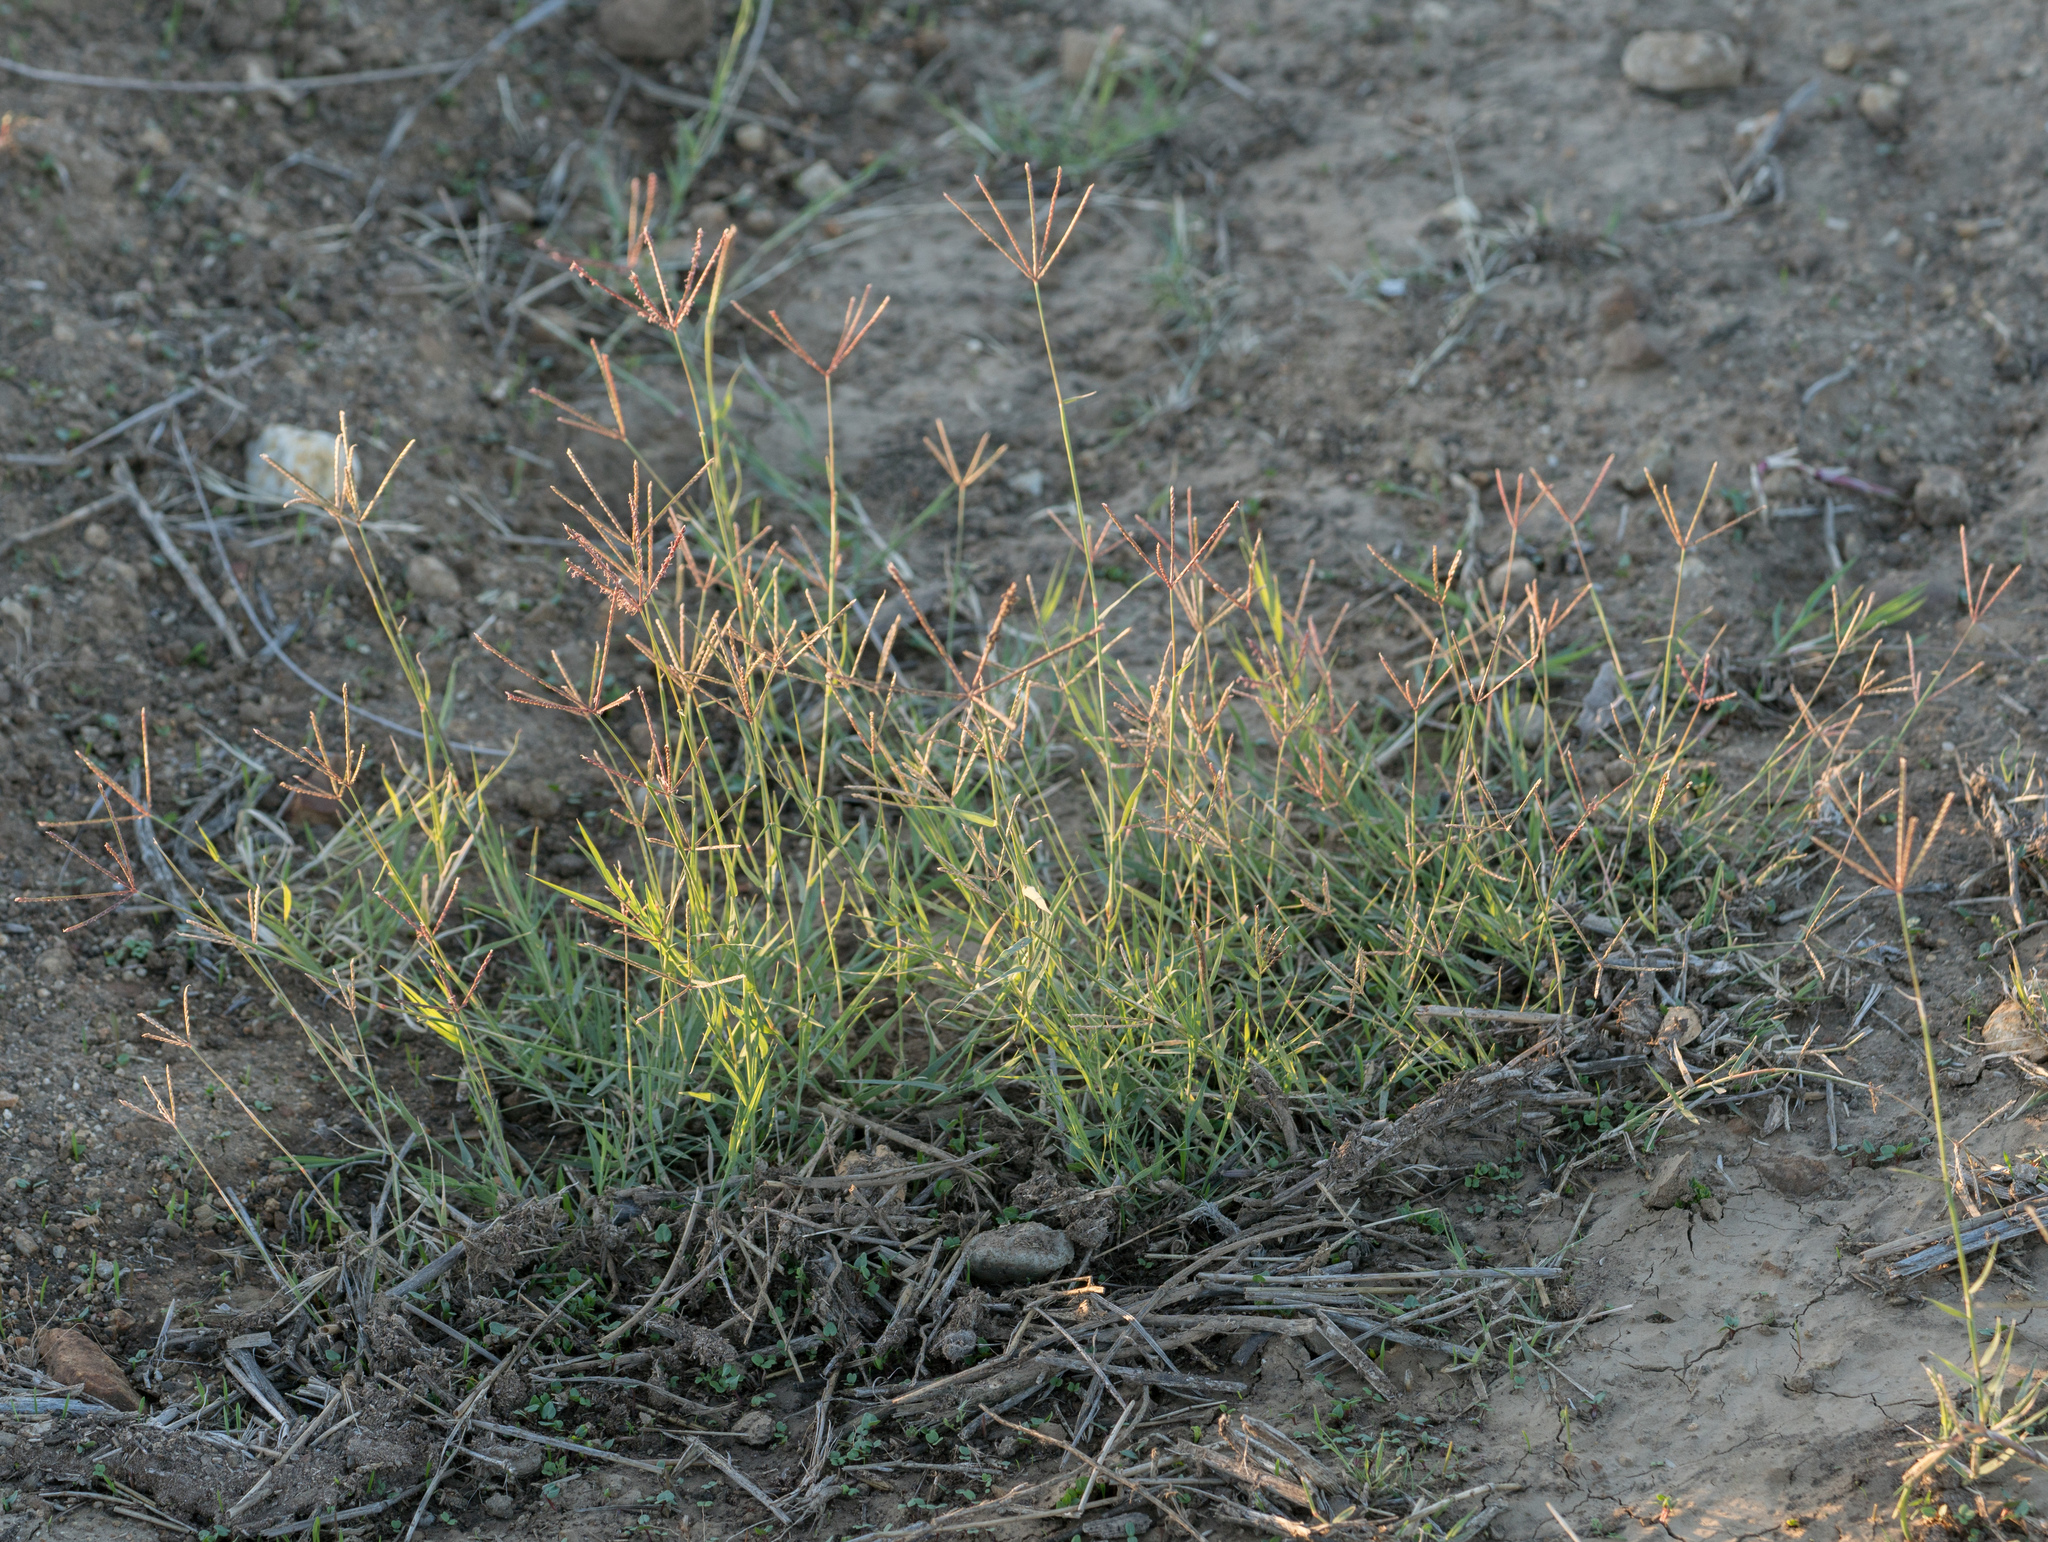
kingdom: Plantae
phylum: Tracheophyta
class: Liliopsida
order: Poales
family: Poaceae
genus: Cynodon
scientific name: Cynodon dactylon
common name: Bermuda grass
